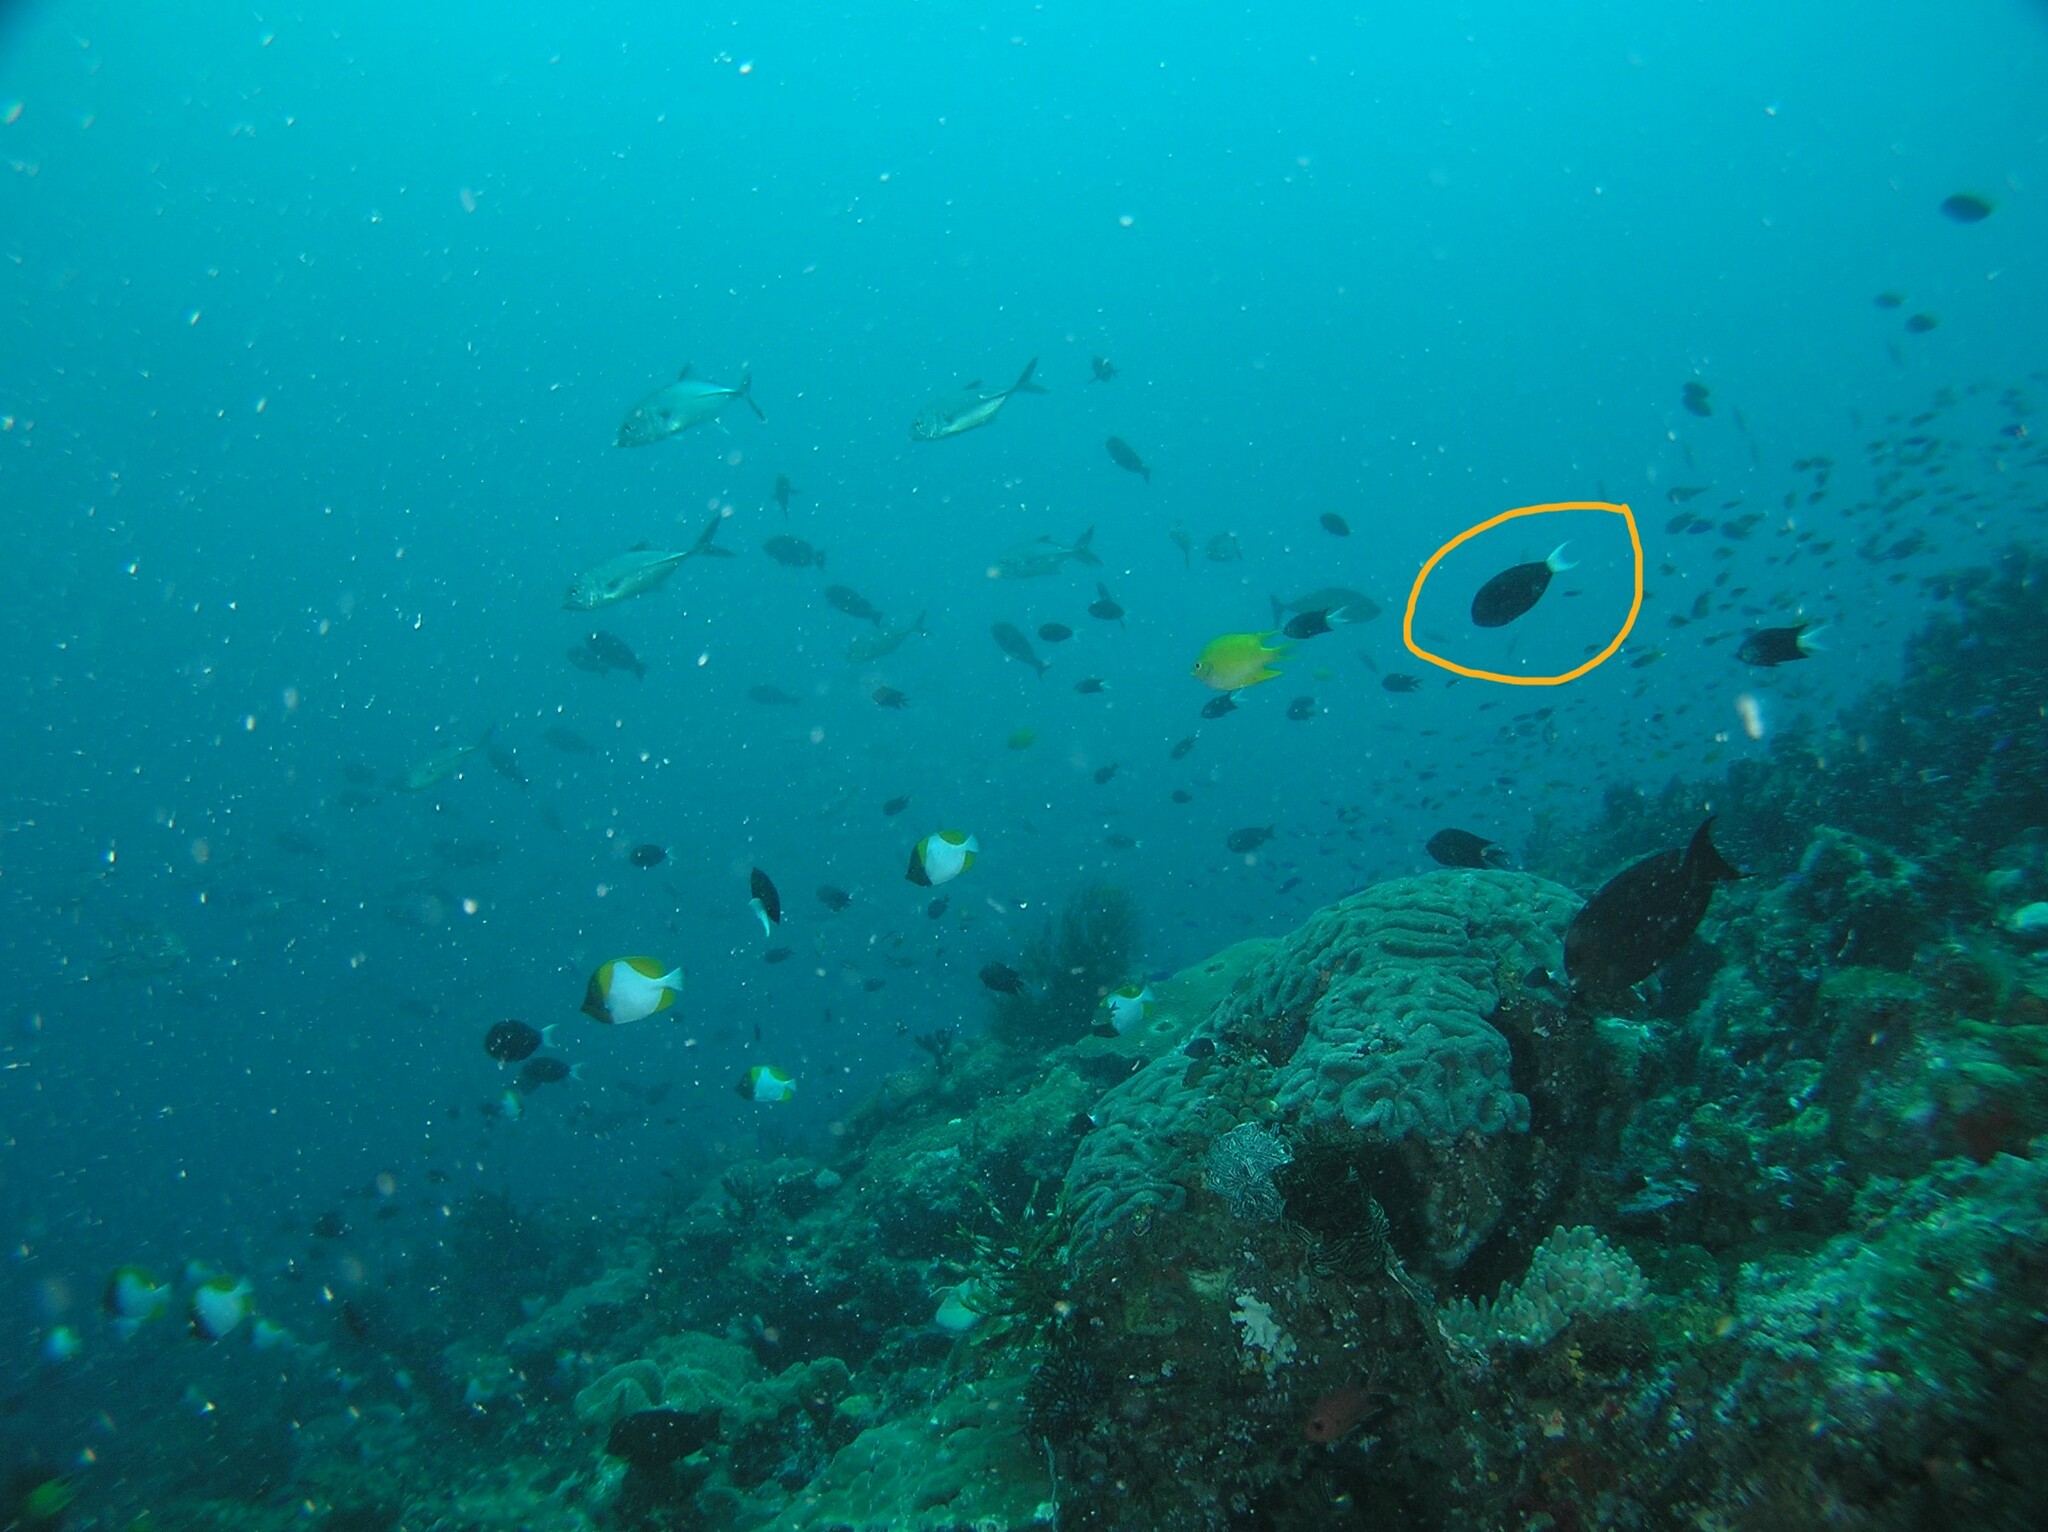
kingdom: Animalia
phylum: Chordata
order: Perciformes
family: Acanthuridae
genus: Acanthurus
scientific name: Acanthurus thompsoni
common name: Chocolate surgeonfish
